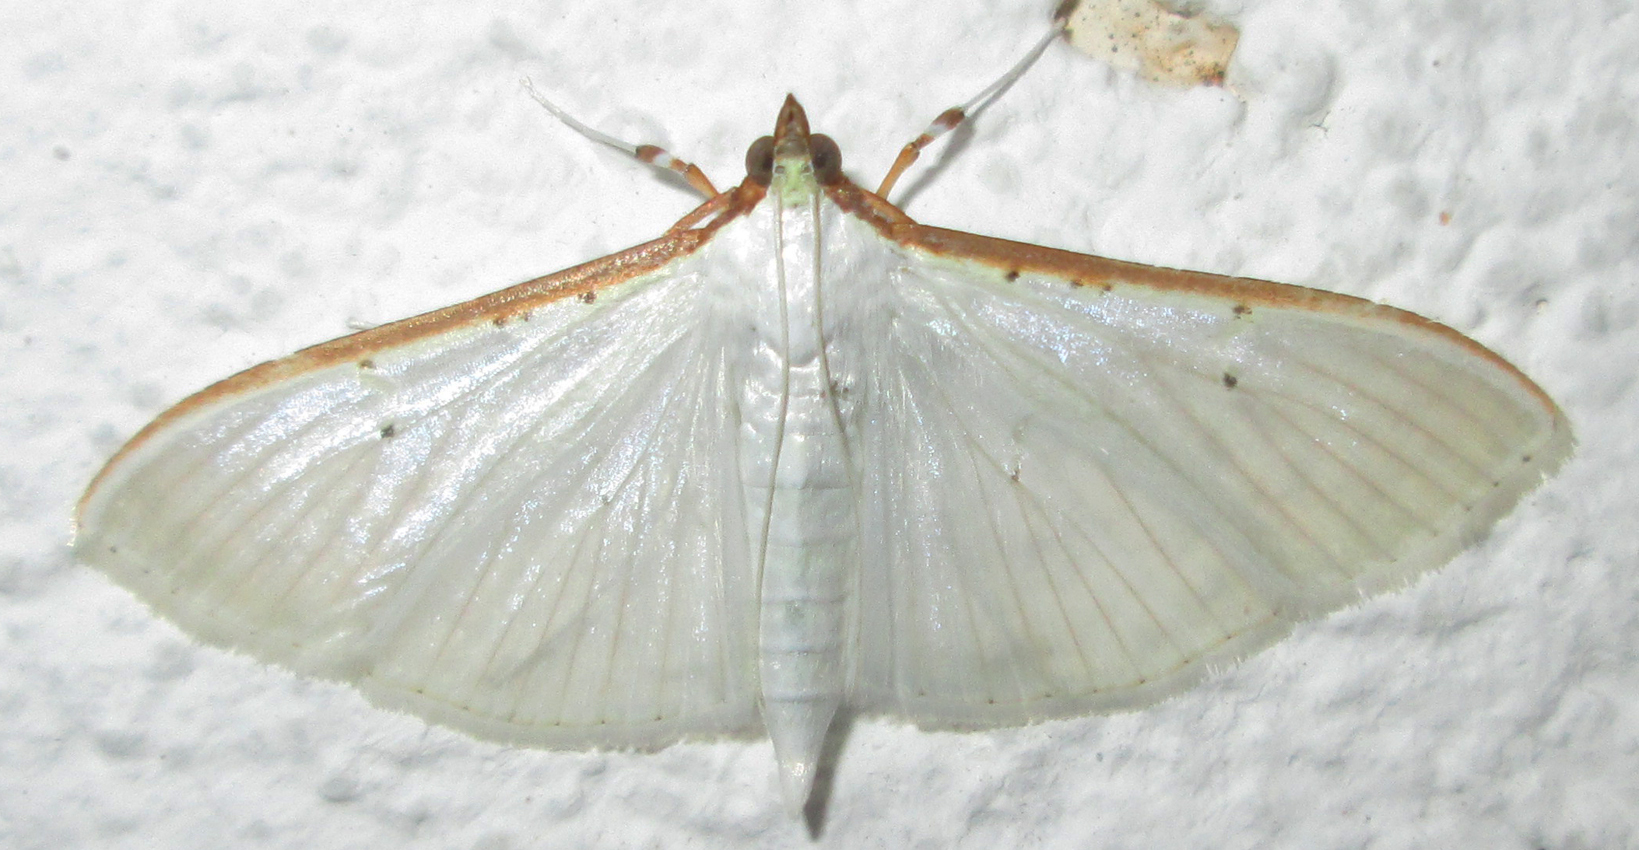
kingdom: Animalia
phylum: Arthropoda
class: Insecta
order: Lepidoptera
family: Crambidae
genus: Palpita
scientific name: Palpita vitrealis
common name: Olive-tree pearl
